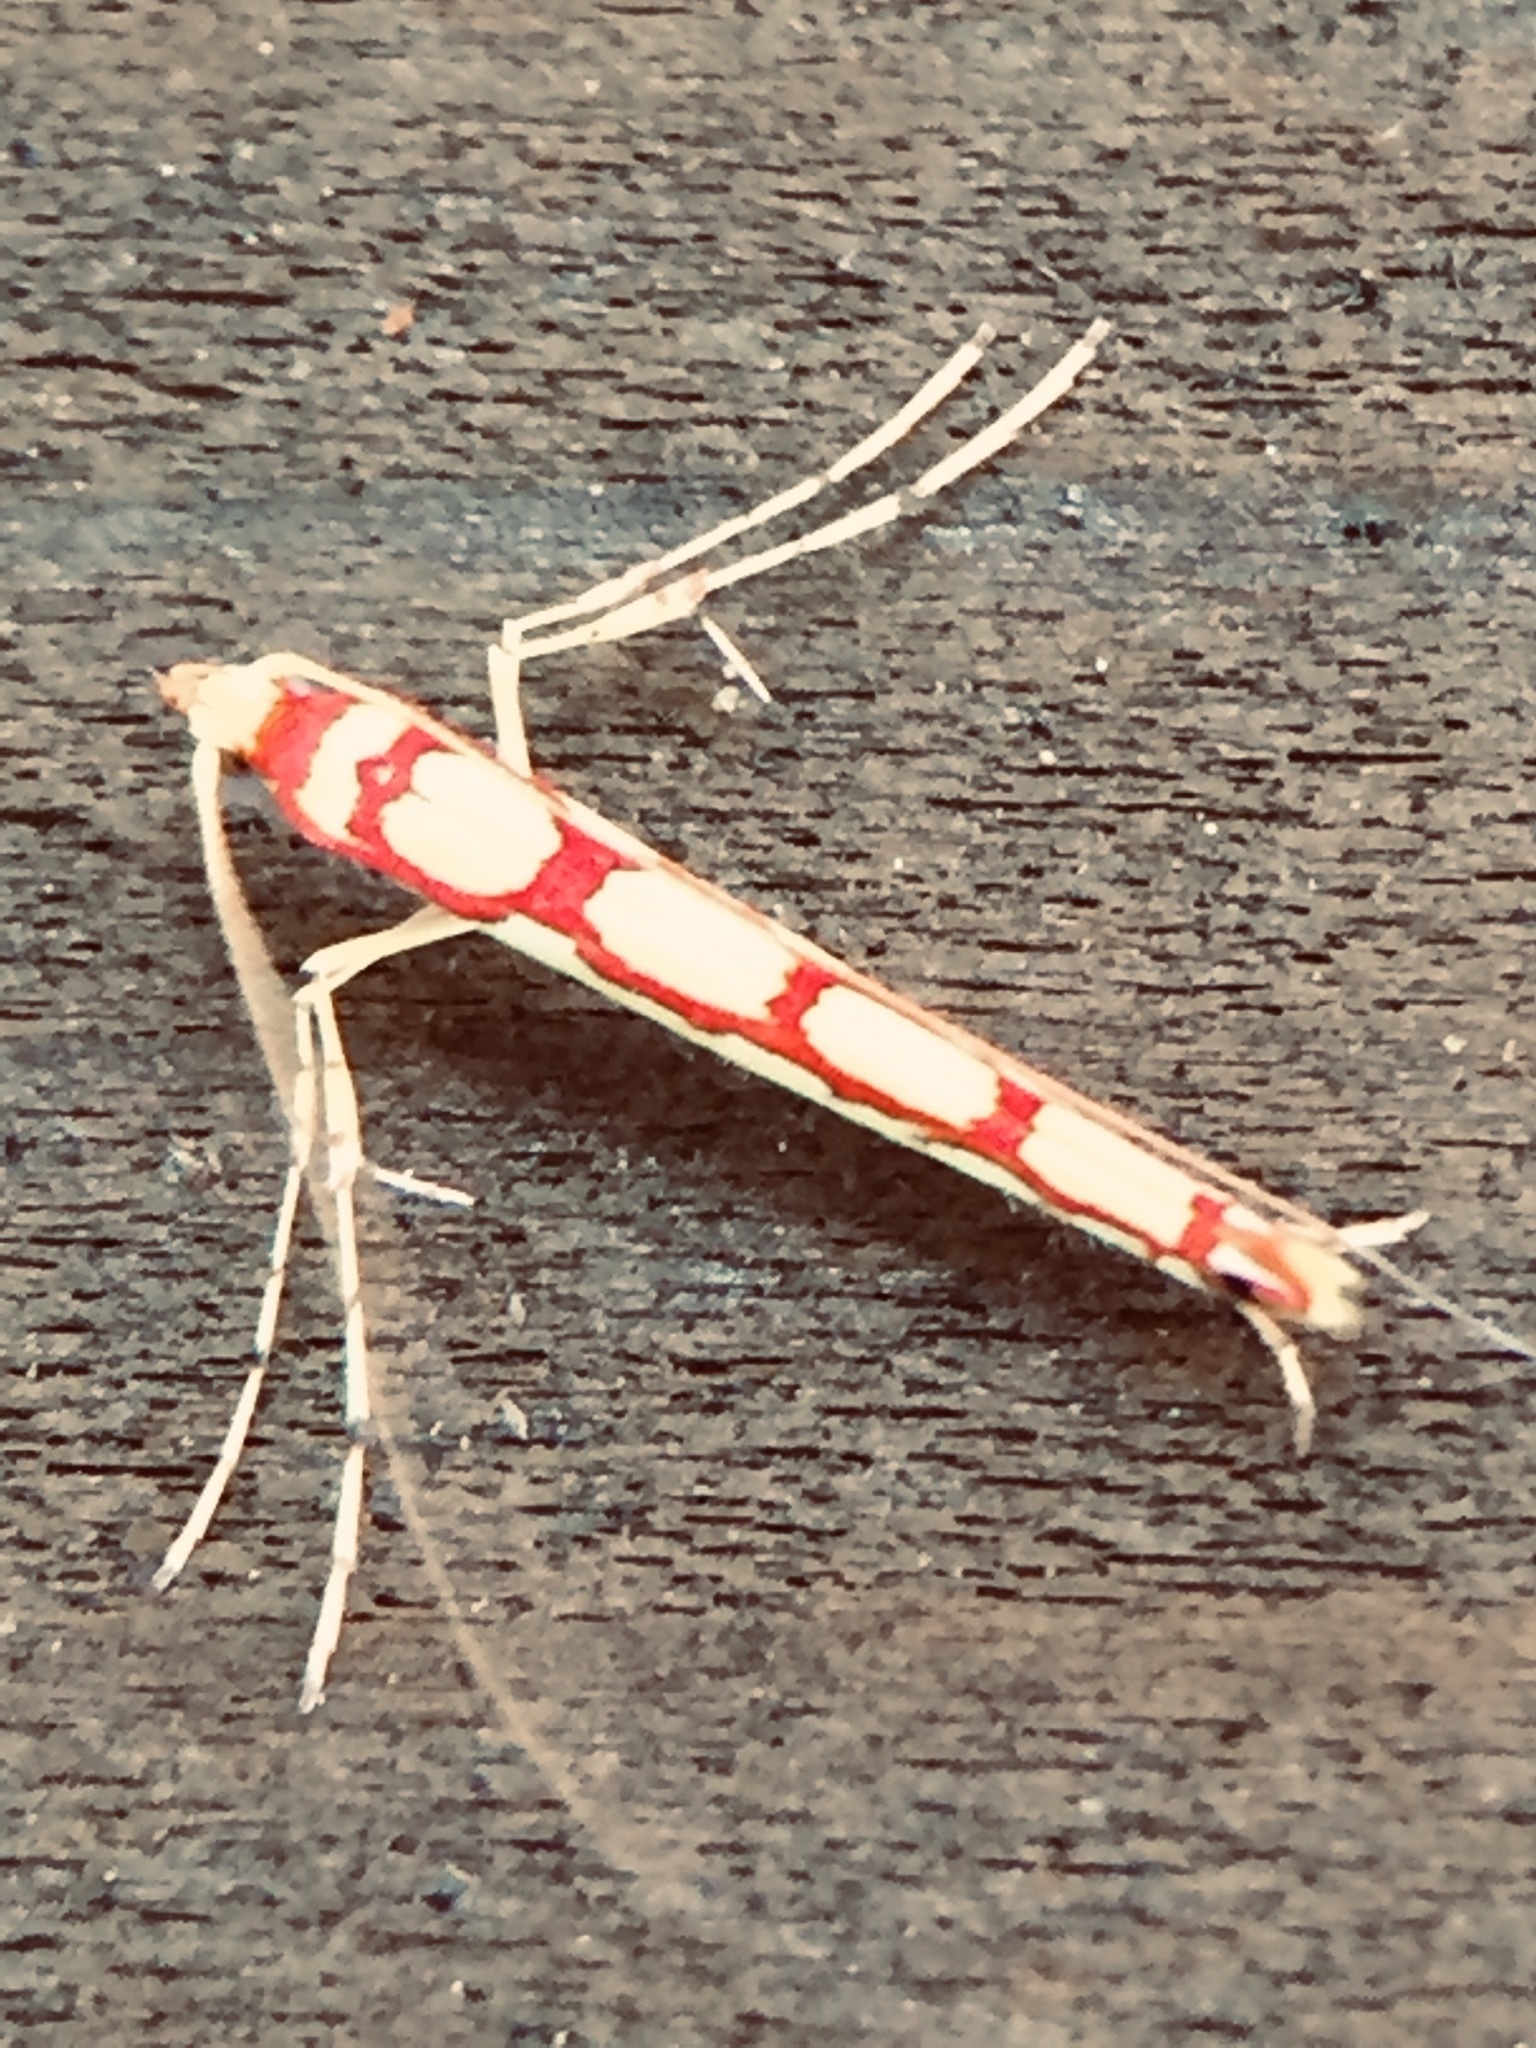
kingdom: Animalia
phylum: Arthropoda
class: Insecta
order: Lepidoptera
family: Gracillariidae
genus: Macarostola
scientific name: Macarostola miniella
